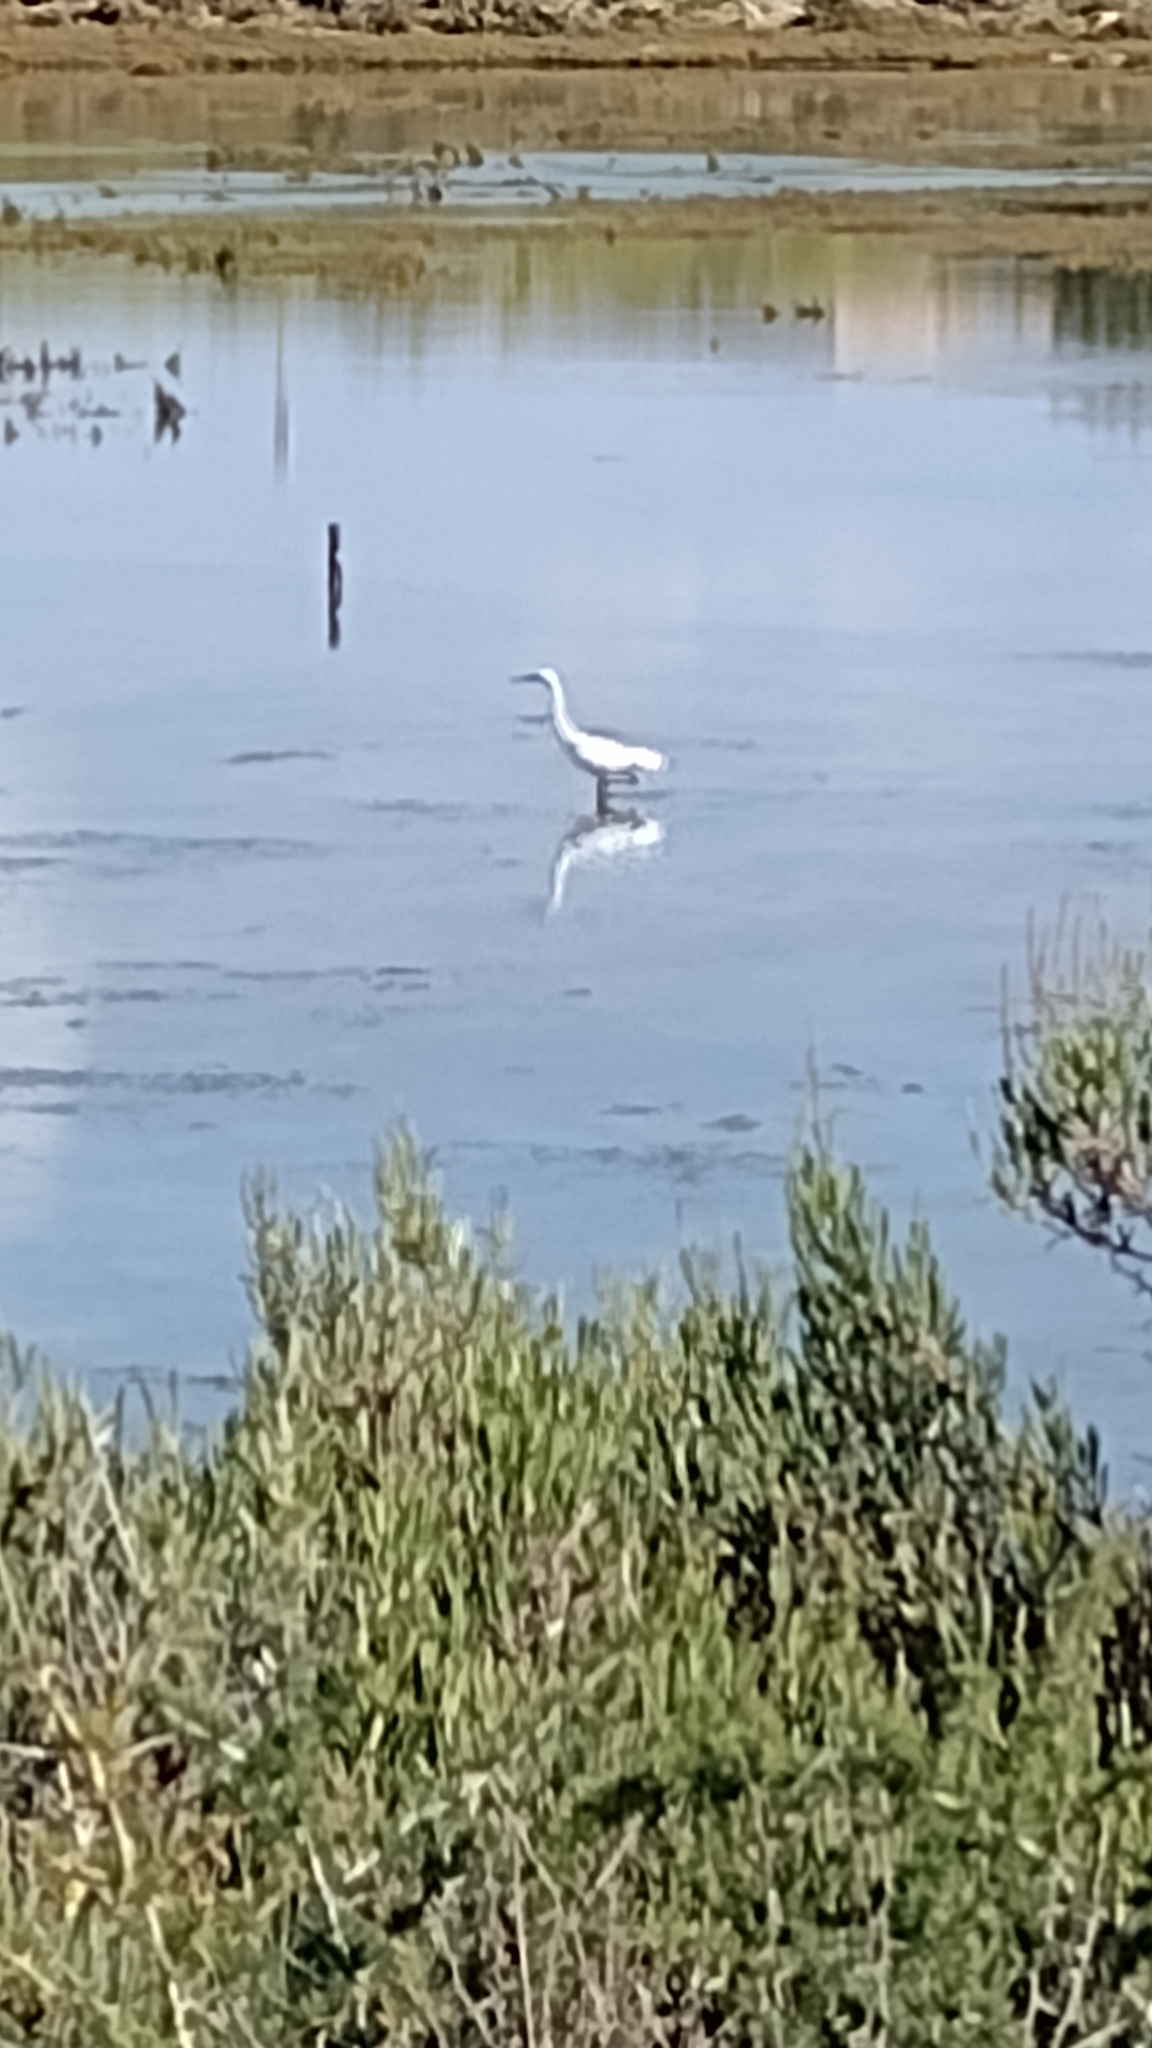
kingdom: Animalia
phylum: Chordata
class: Aves
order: Pelecaniformes
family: Ardeidae
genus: Egretta
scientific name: Egretta garzetta
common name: Little egret
